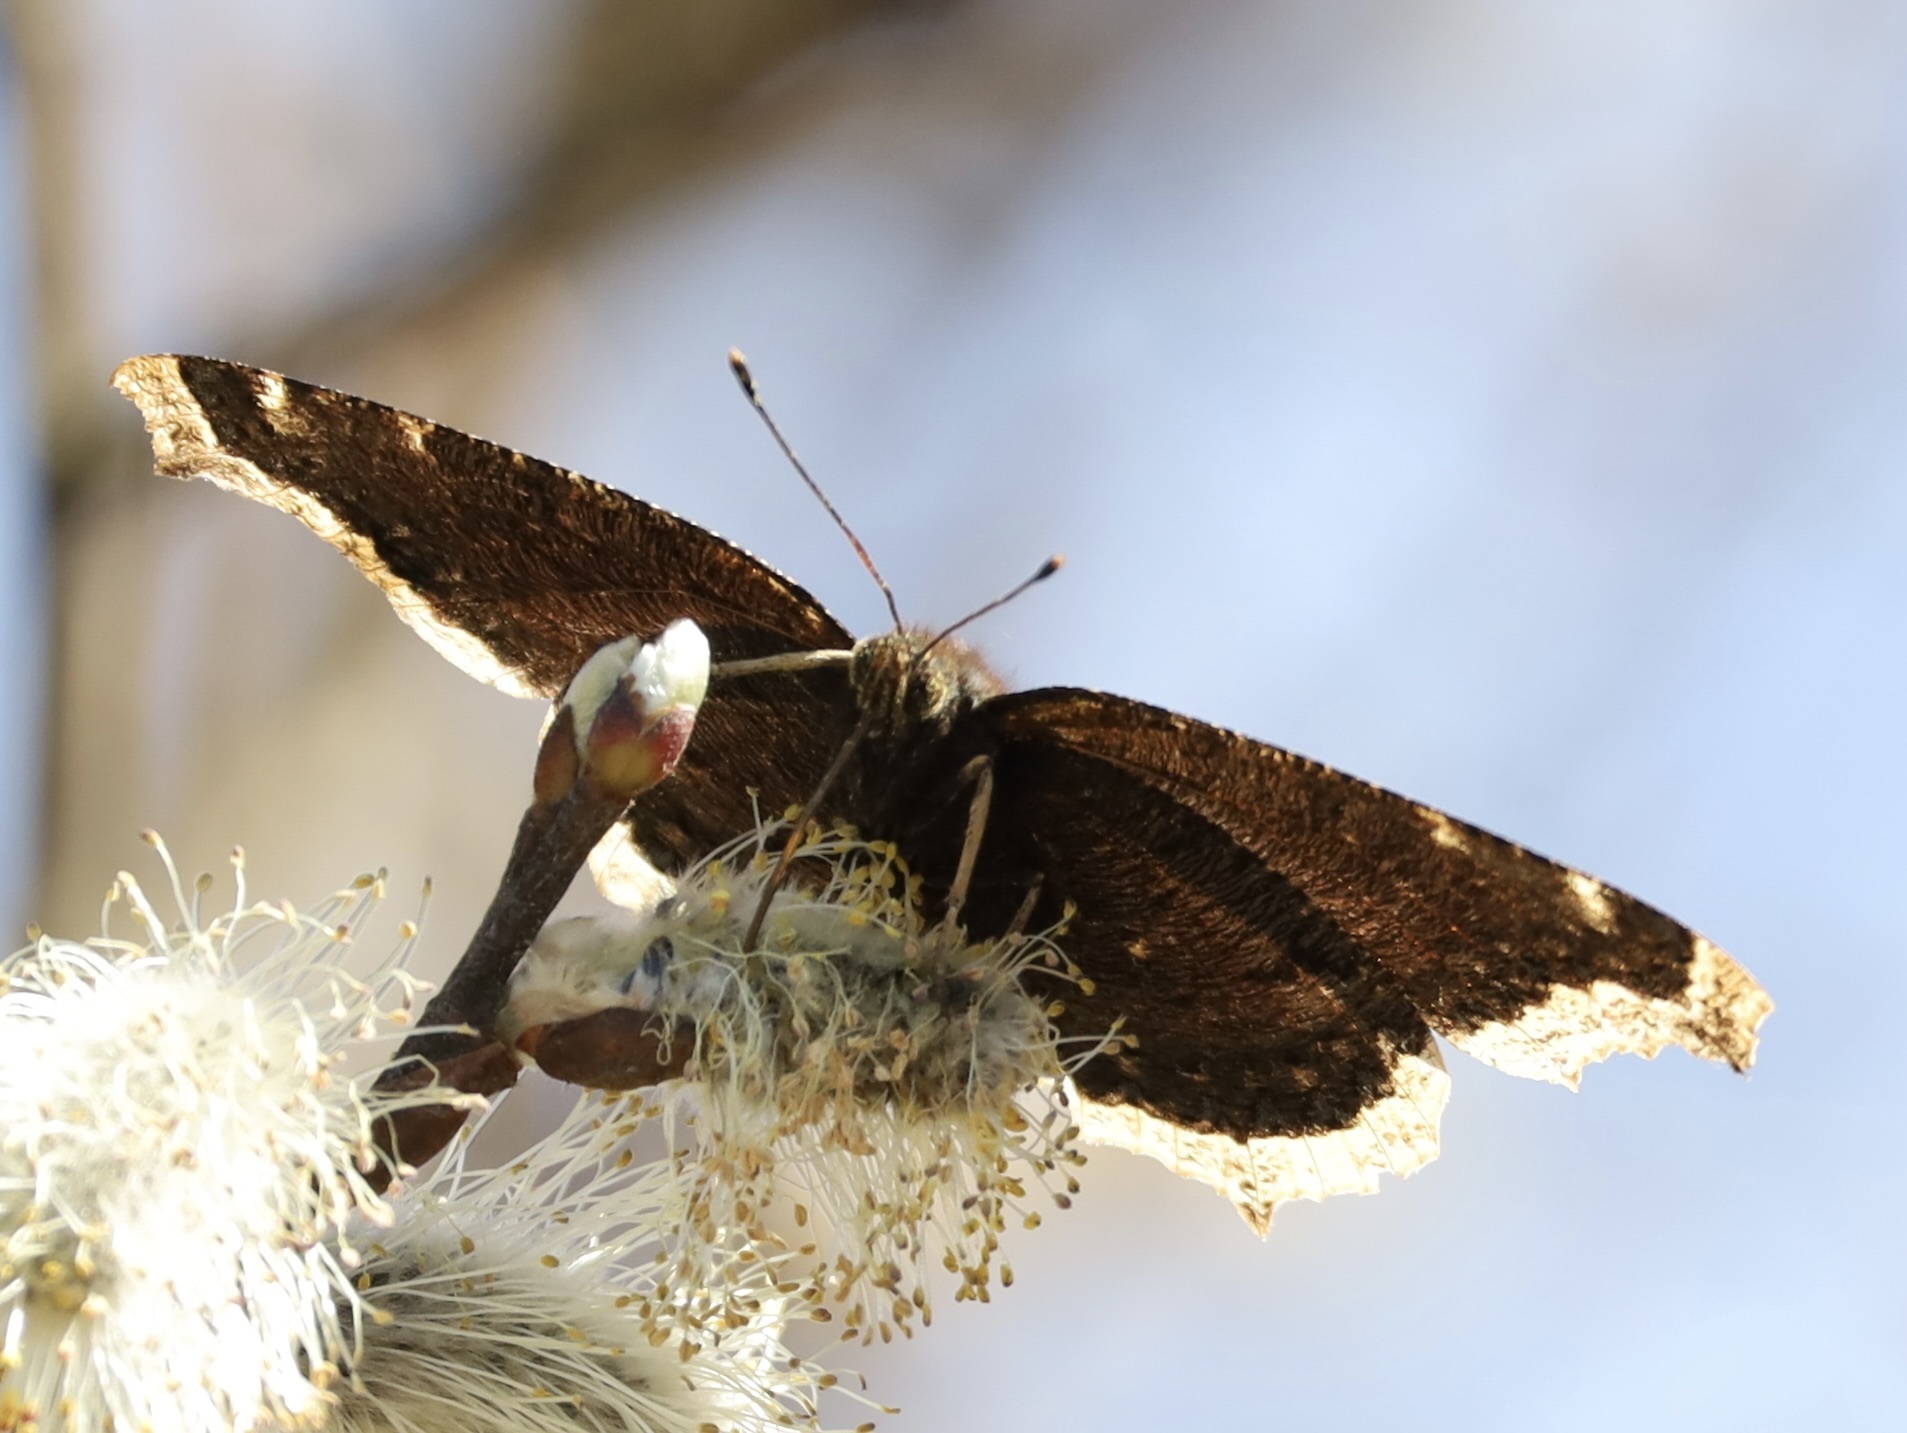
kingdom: Animalia
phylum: Arthropoda
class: Insecta
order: Lepidoptera
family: Nymphalidae
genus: Nymphalis
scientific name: Nymphalis antiopa
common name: Camberwell beauty
